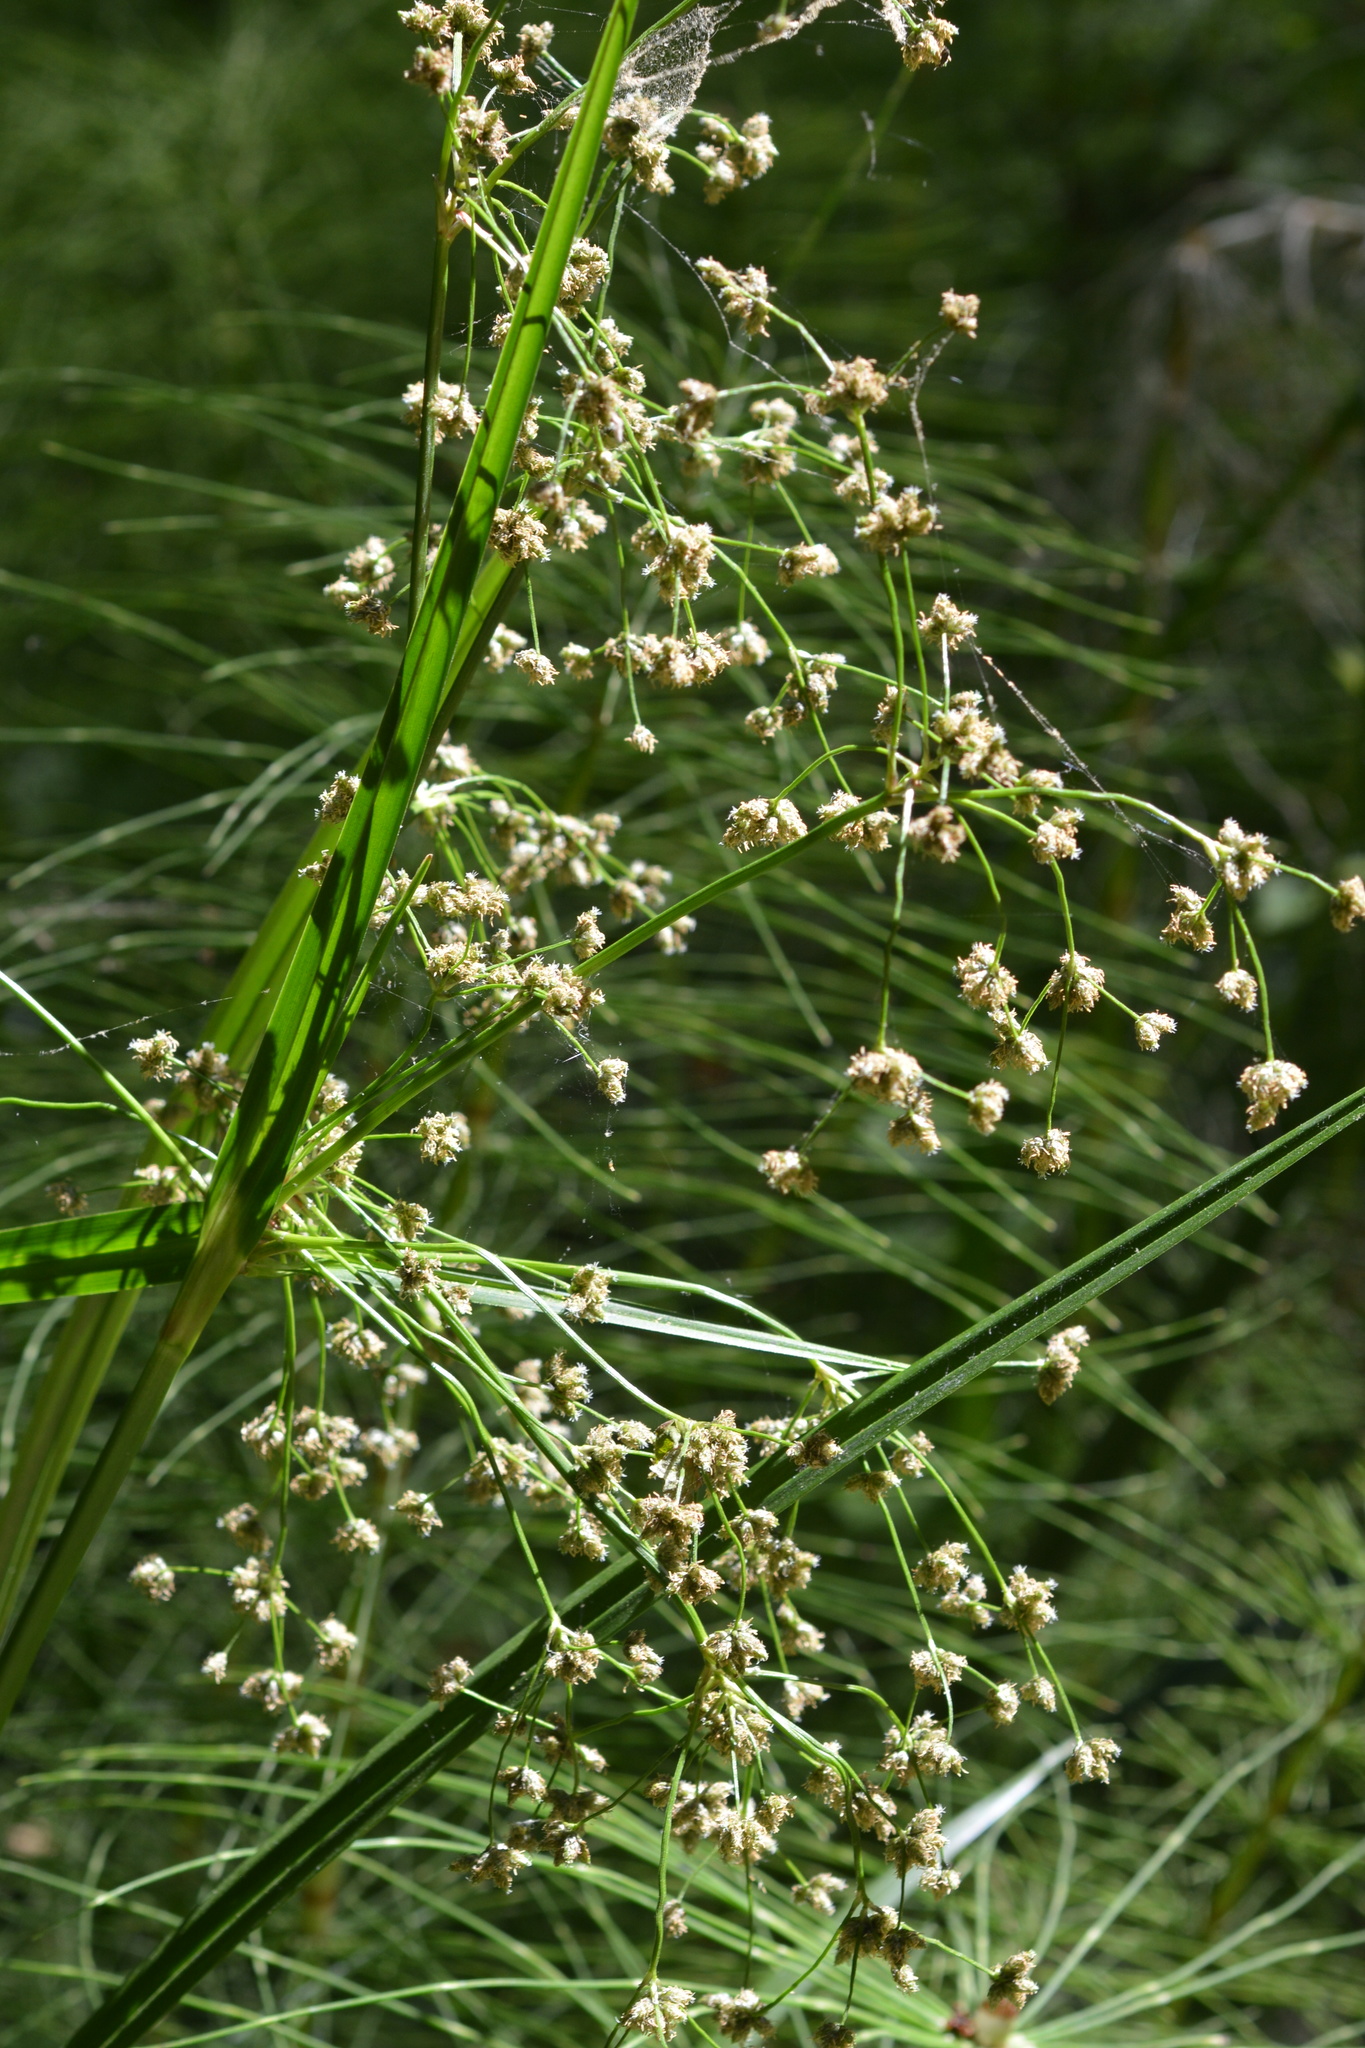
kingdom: Plantae
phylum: Tracheophyta
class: Liliopsida
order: Poales
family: Cyperaceae
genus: Scirpus
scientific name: Scirpus microcarpus
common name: Panicled bulrush
